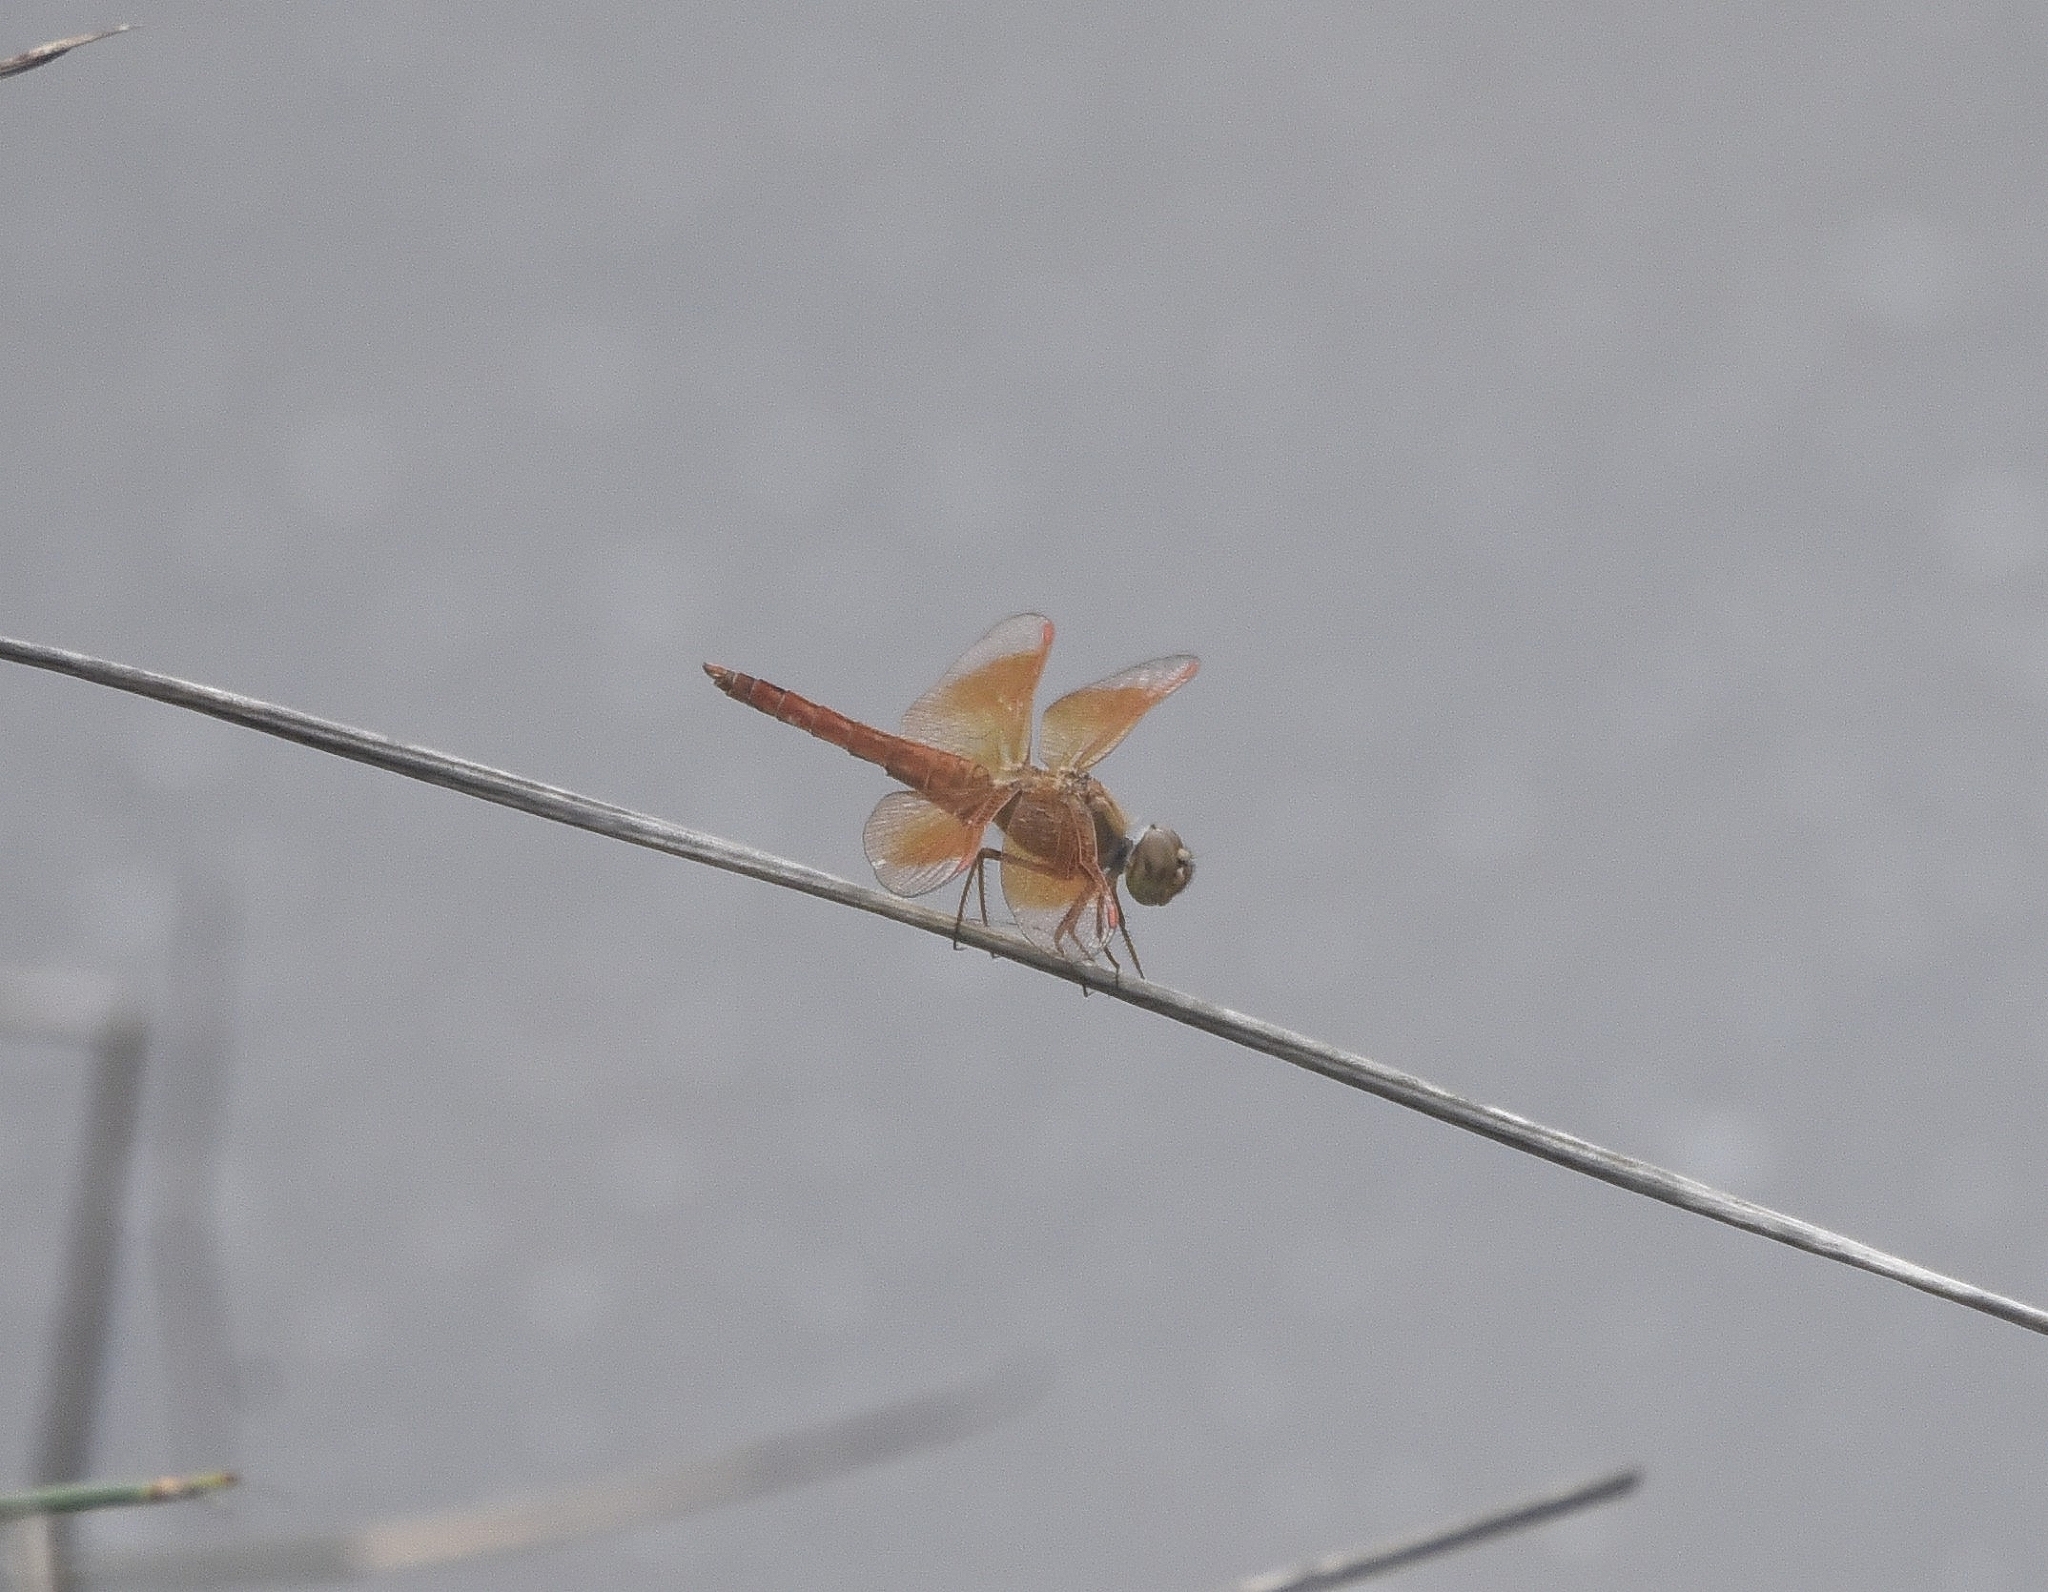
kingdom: Animalia
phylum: Arthropoda
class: Insecta
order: Odonata
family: Libellulidae
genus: Brachythemis
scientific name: Brachythemis contaminata
